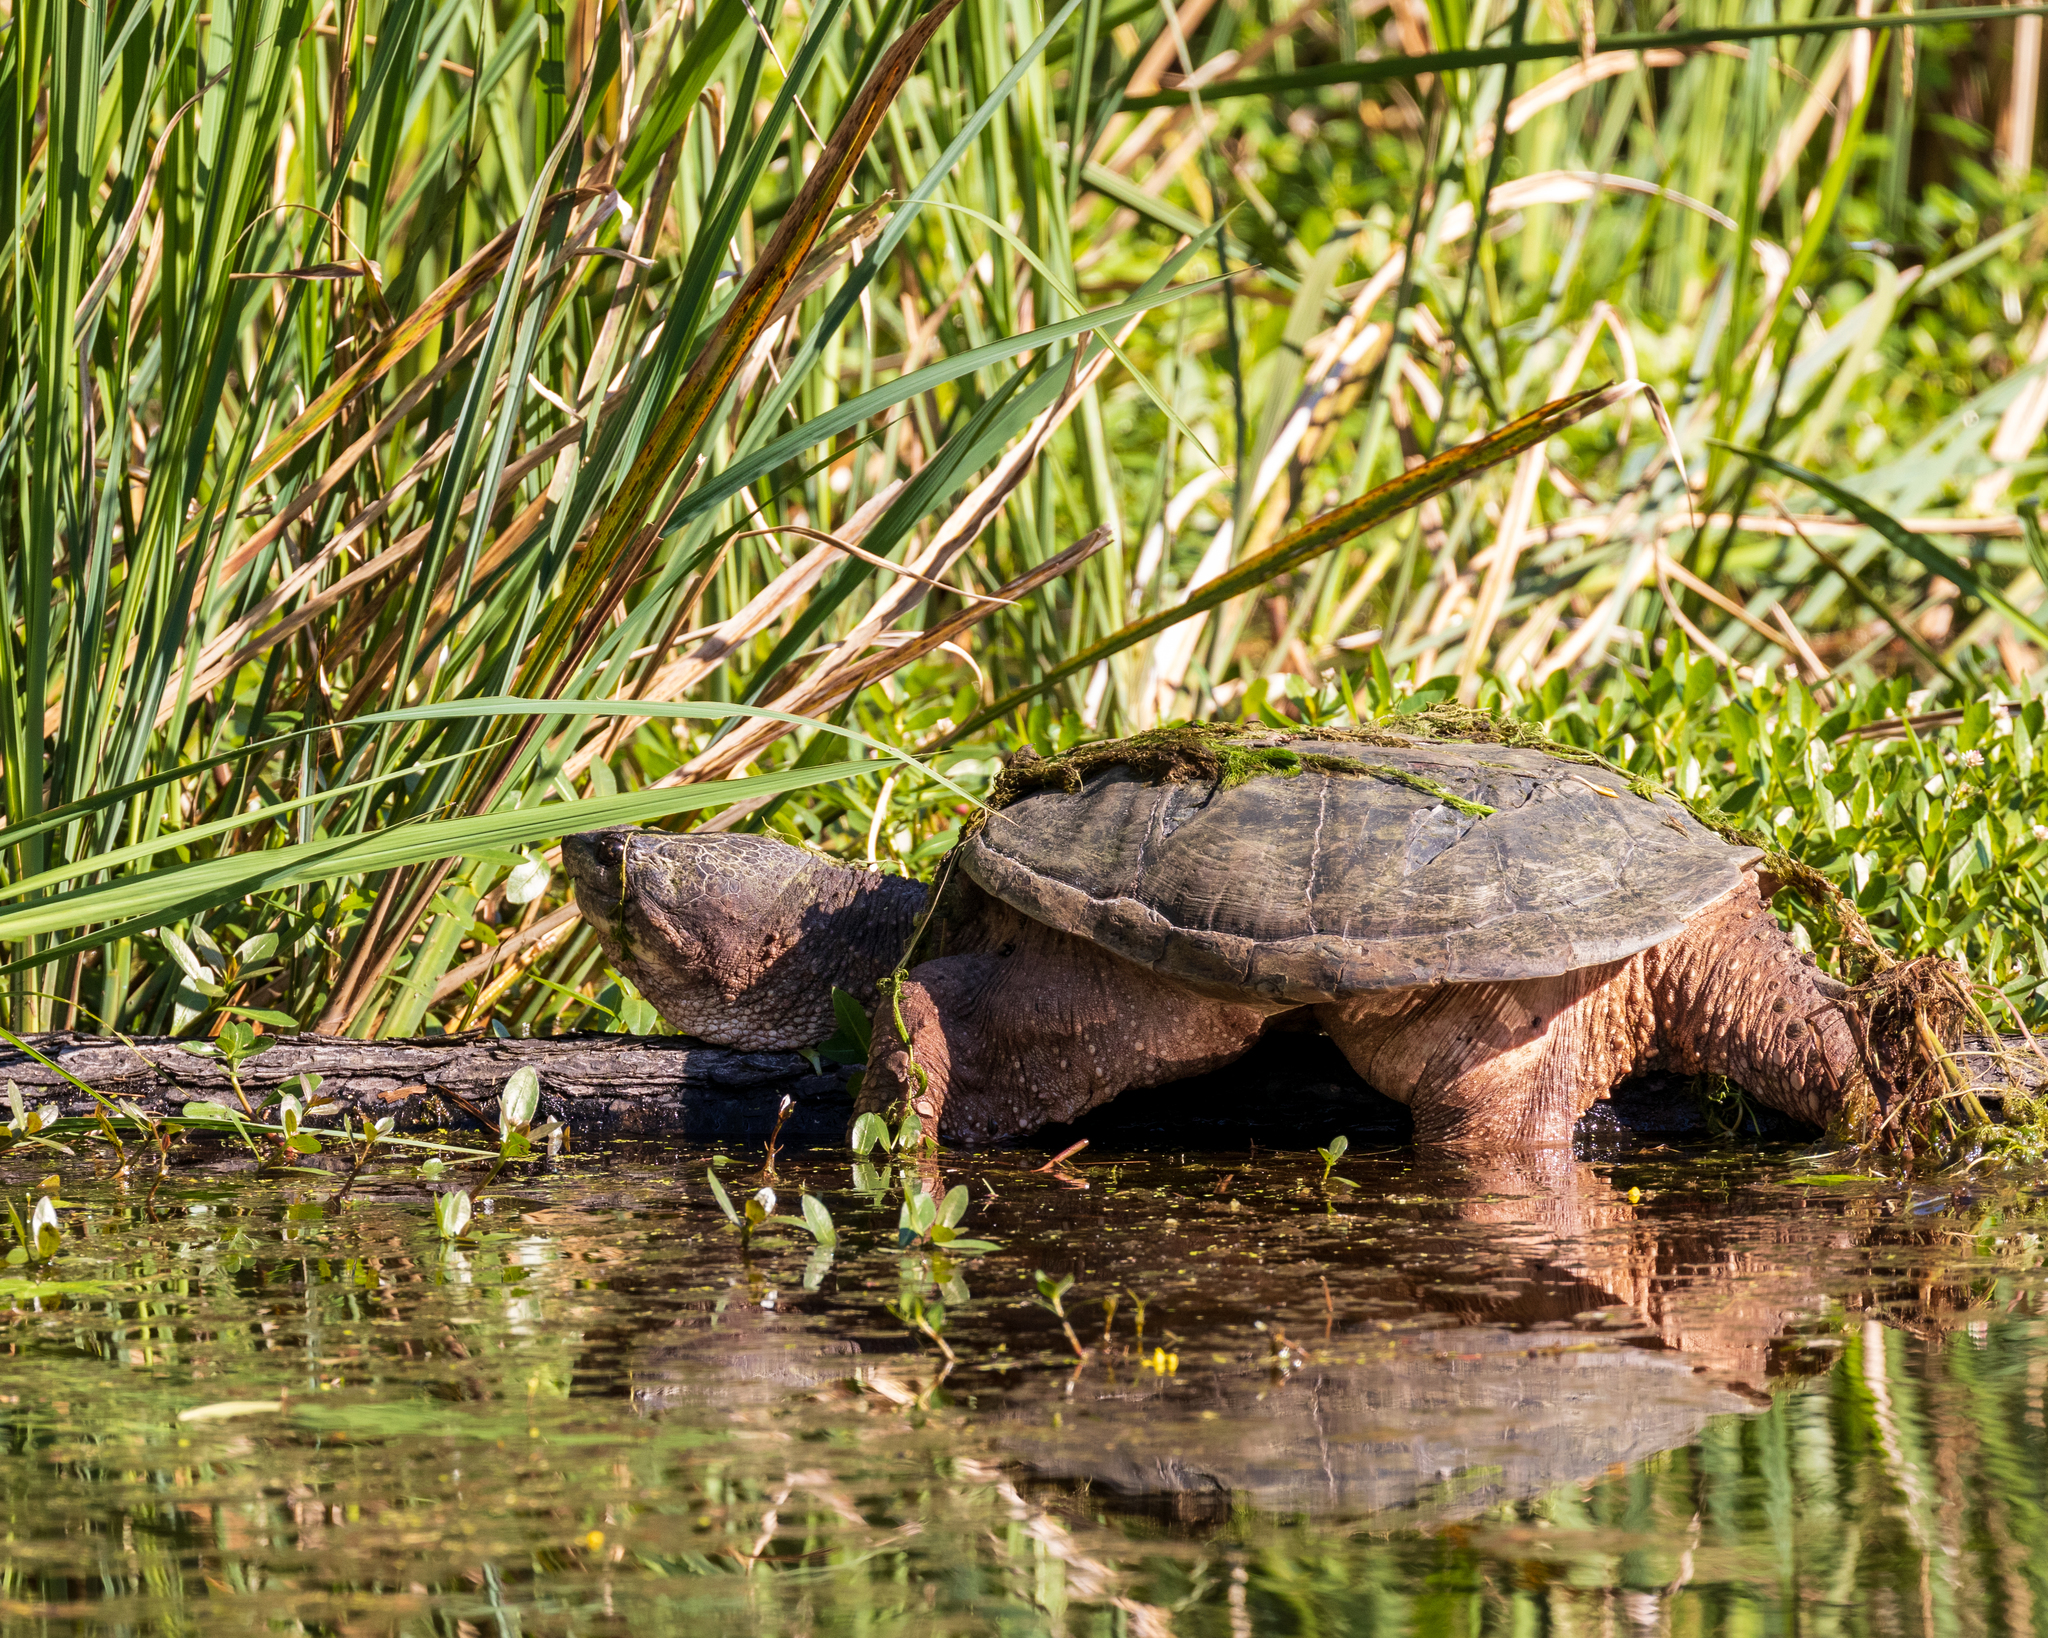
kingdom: Animalia
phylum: Chordata
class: Testudines
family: Chelydridae
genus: Chelydra
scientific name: Chelydra serpentina
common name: Common snapping turtle
